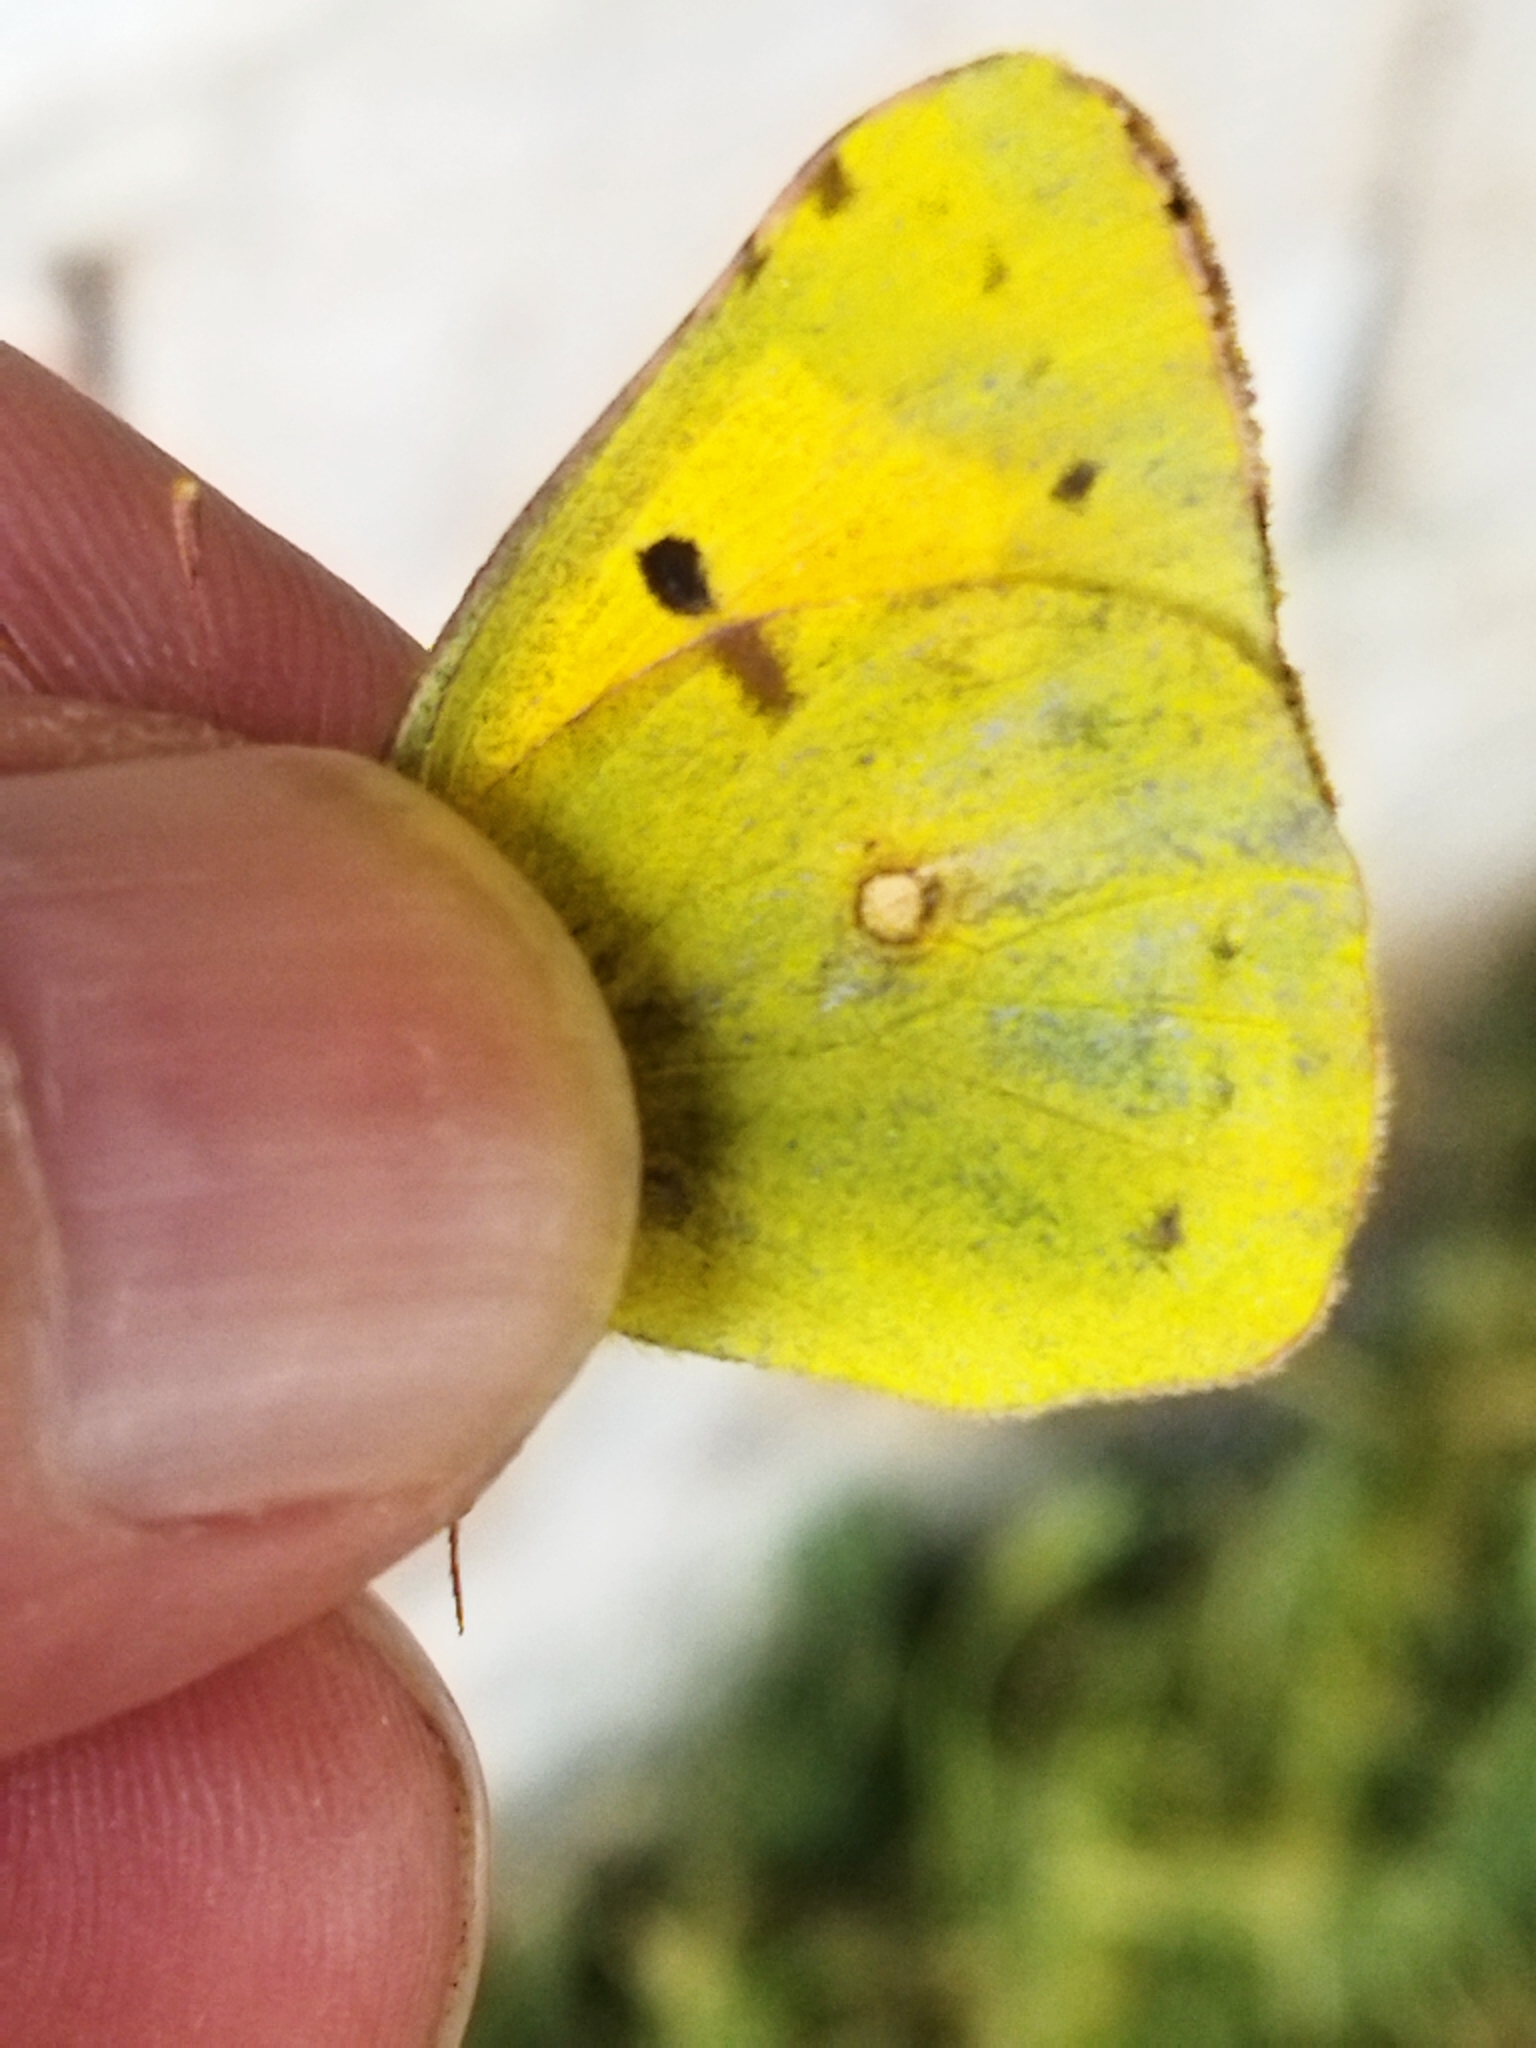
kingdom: Animalia
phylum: Arthropoda
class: Insecta
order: Lepidoptera
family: Pieridae
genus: Colias
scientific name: Colias croceus
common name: Clouded yellow
